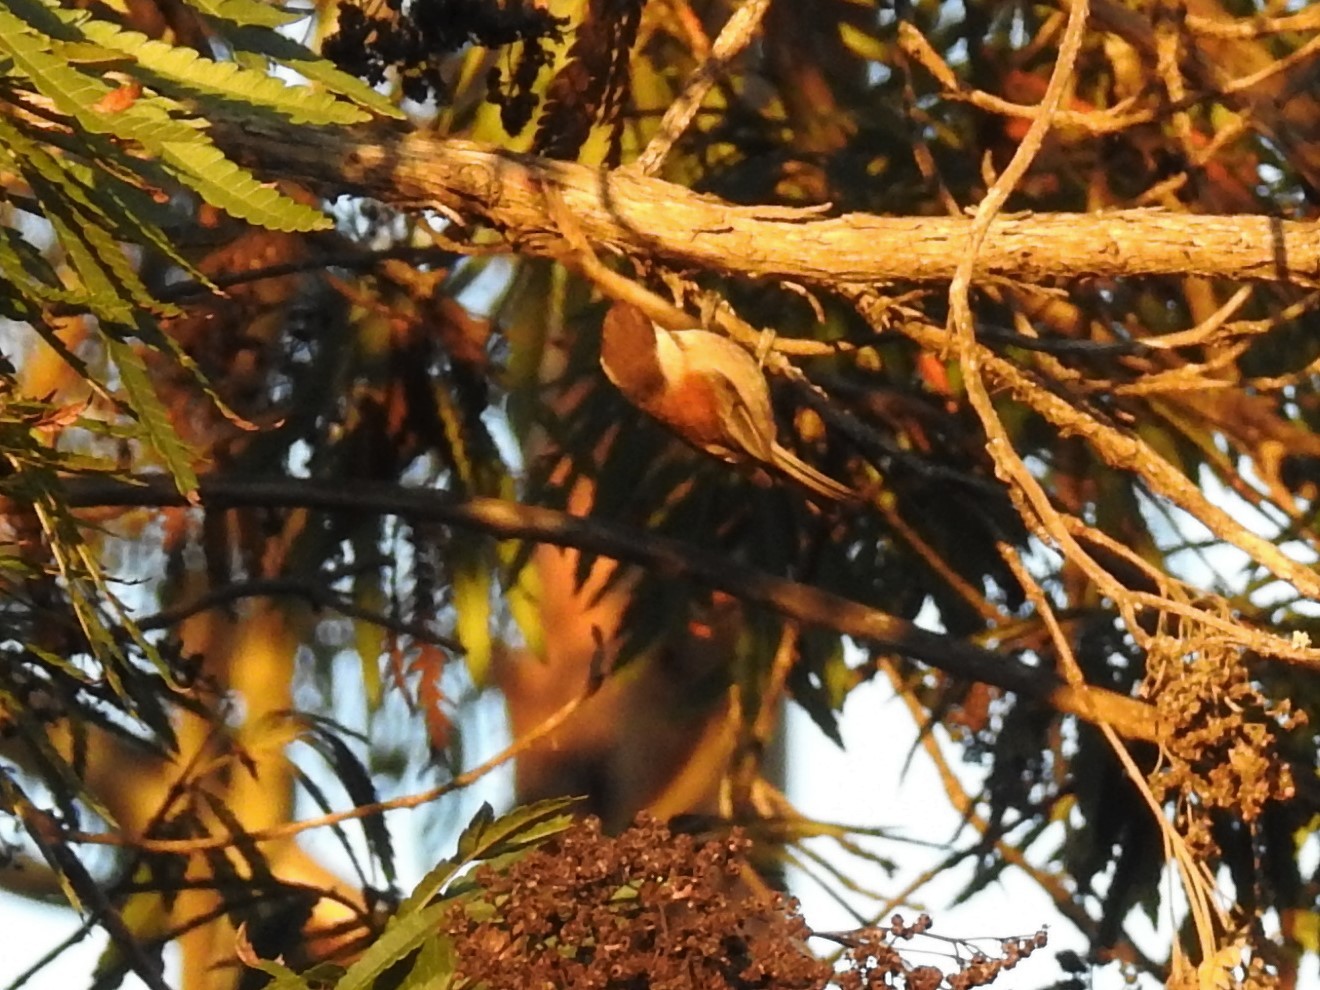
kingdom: Animalia
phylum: Chordata
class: Aves
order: Passeriformes
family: Paridae
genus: Poecile
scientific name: Poecile rufescens
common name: Chestnut-backed chickadee
